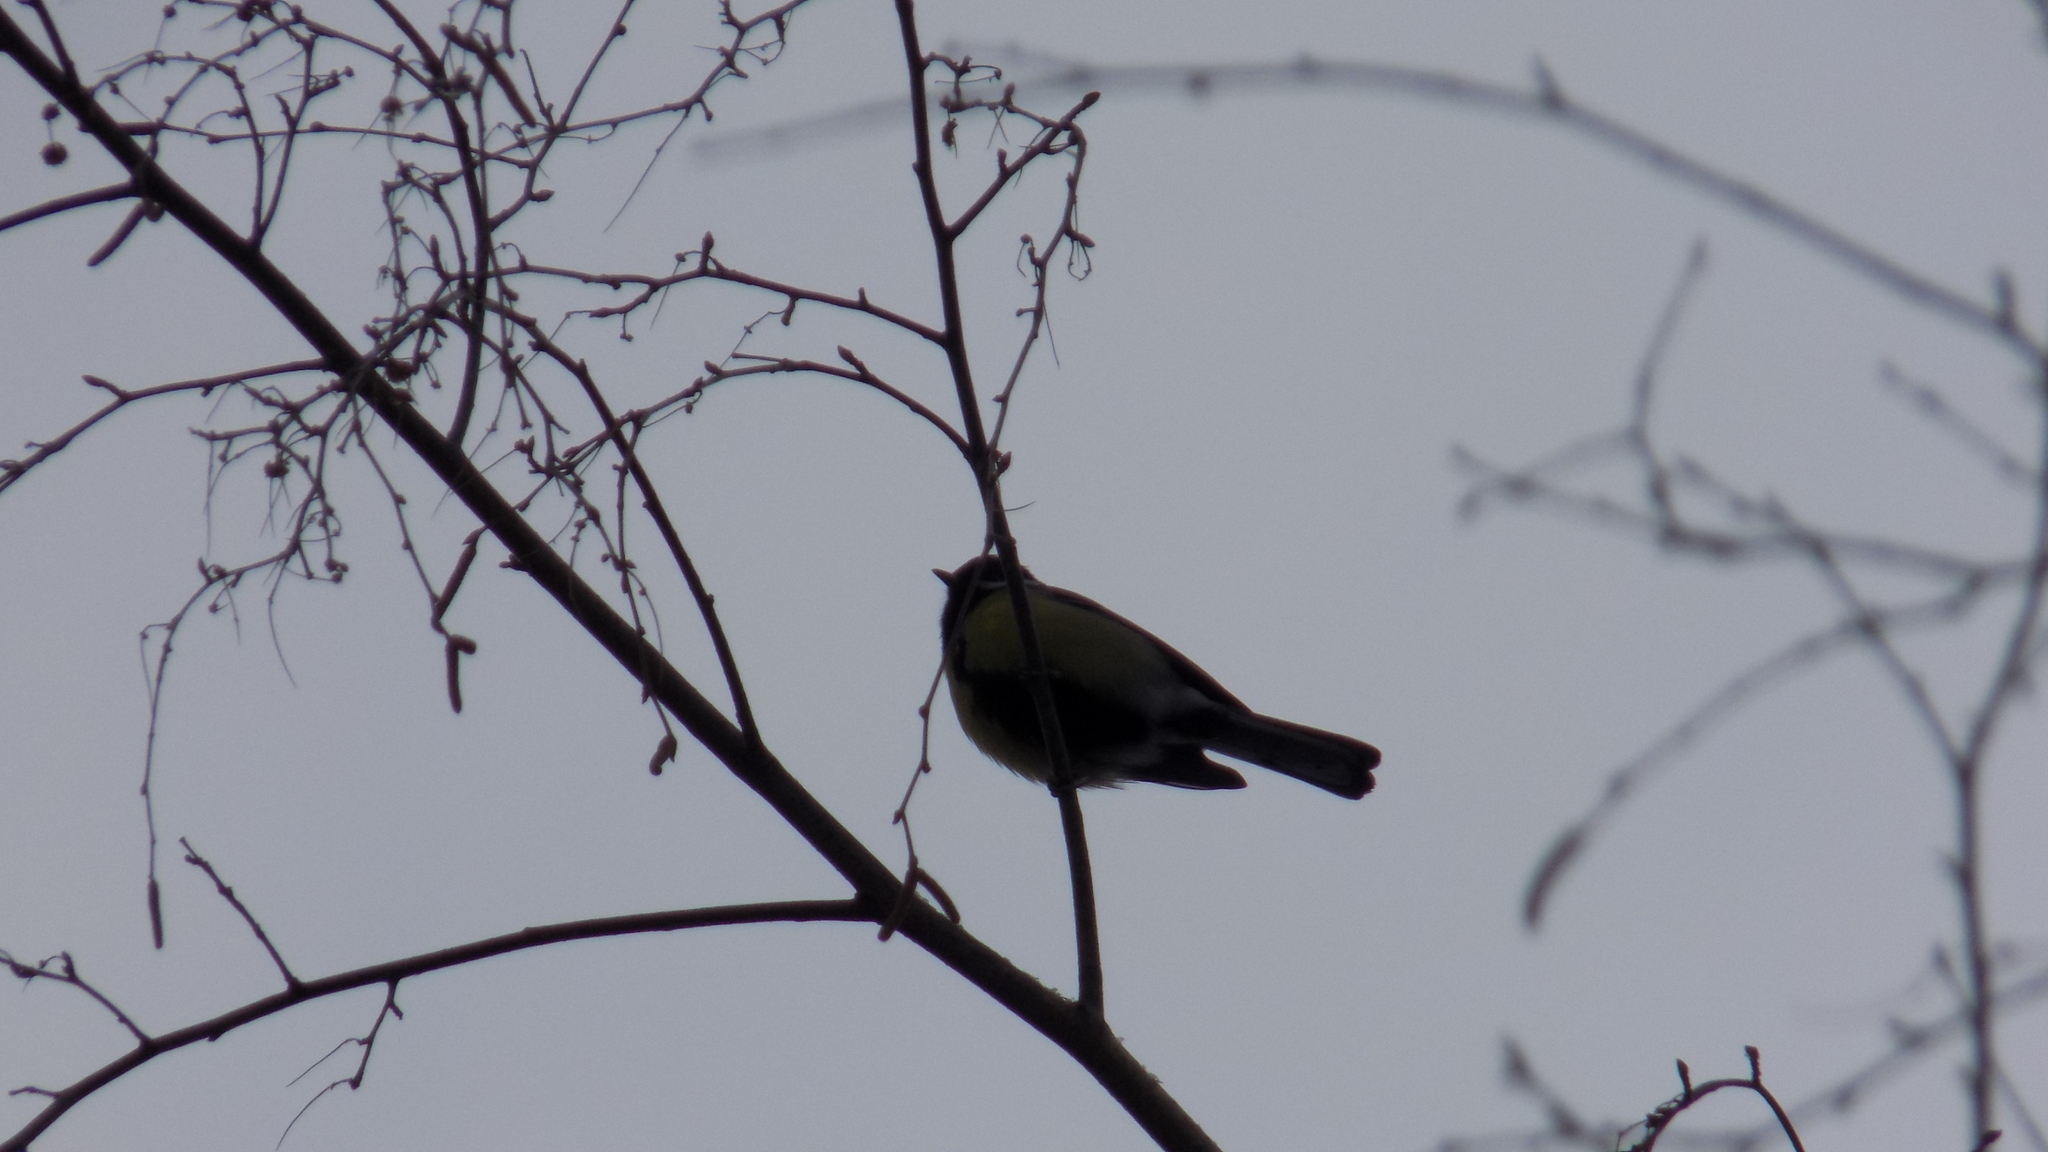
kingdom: Animalia
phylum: Chordata
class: Aves
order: Passeriformes
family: Paridae
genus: Parus
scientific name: Parus major
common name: Great tit
